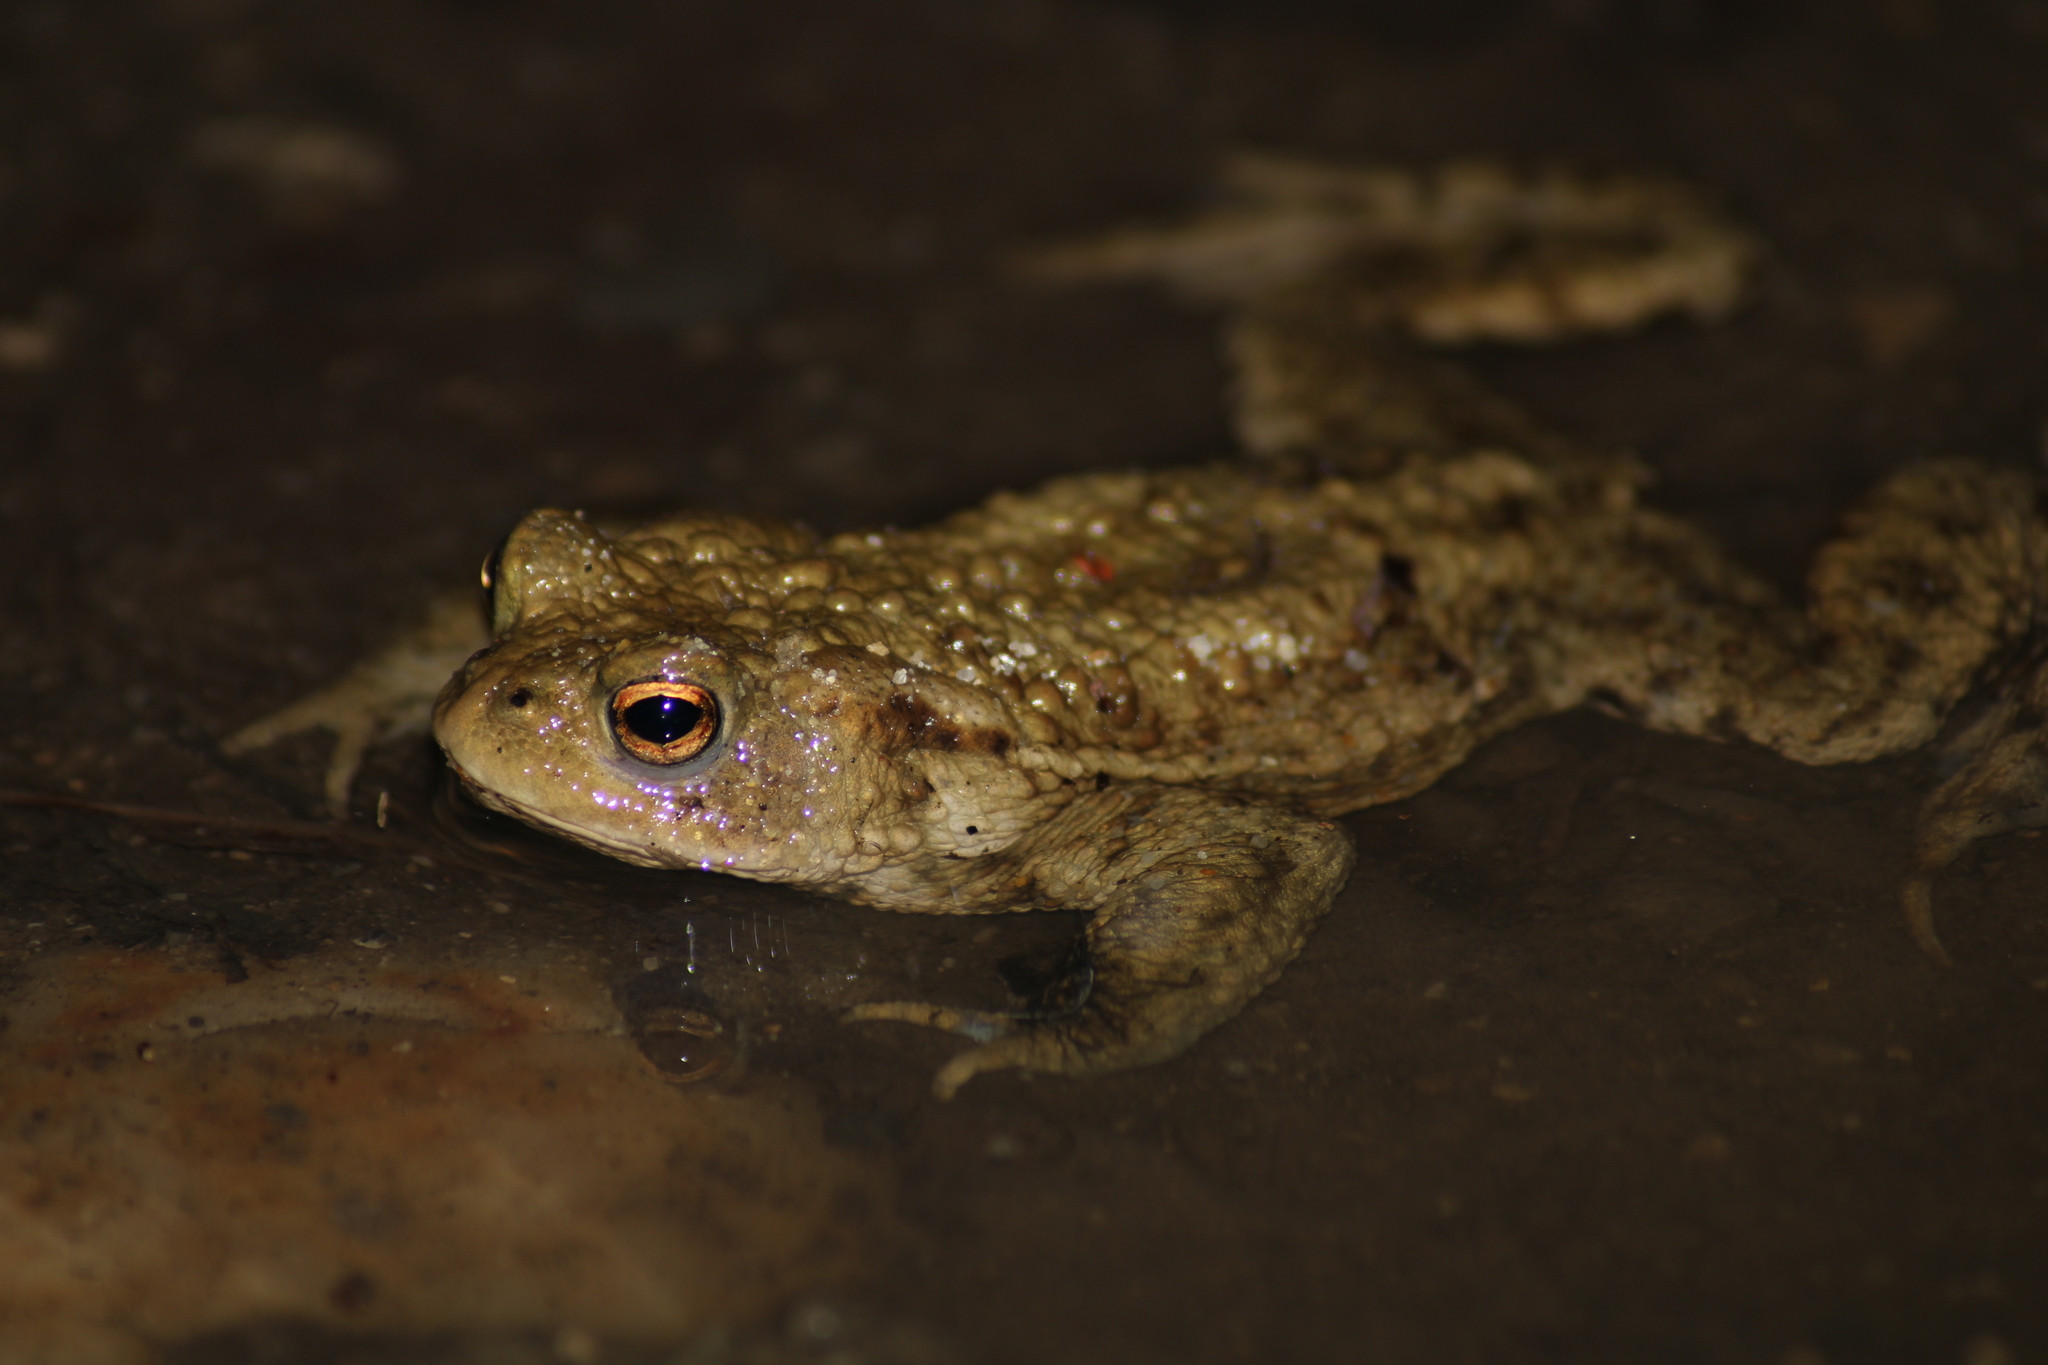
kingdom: Animalia
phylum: Chordata
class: Amphibia
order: Anura
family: Bufonidae
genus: Bufo
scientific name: Bufo bufo
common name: Common toad
